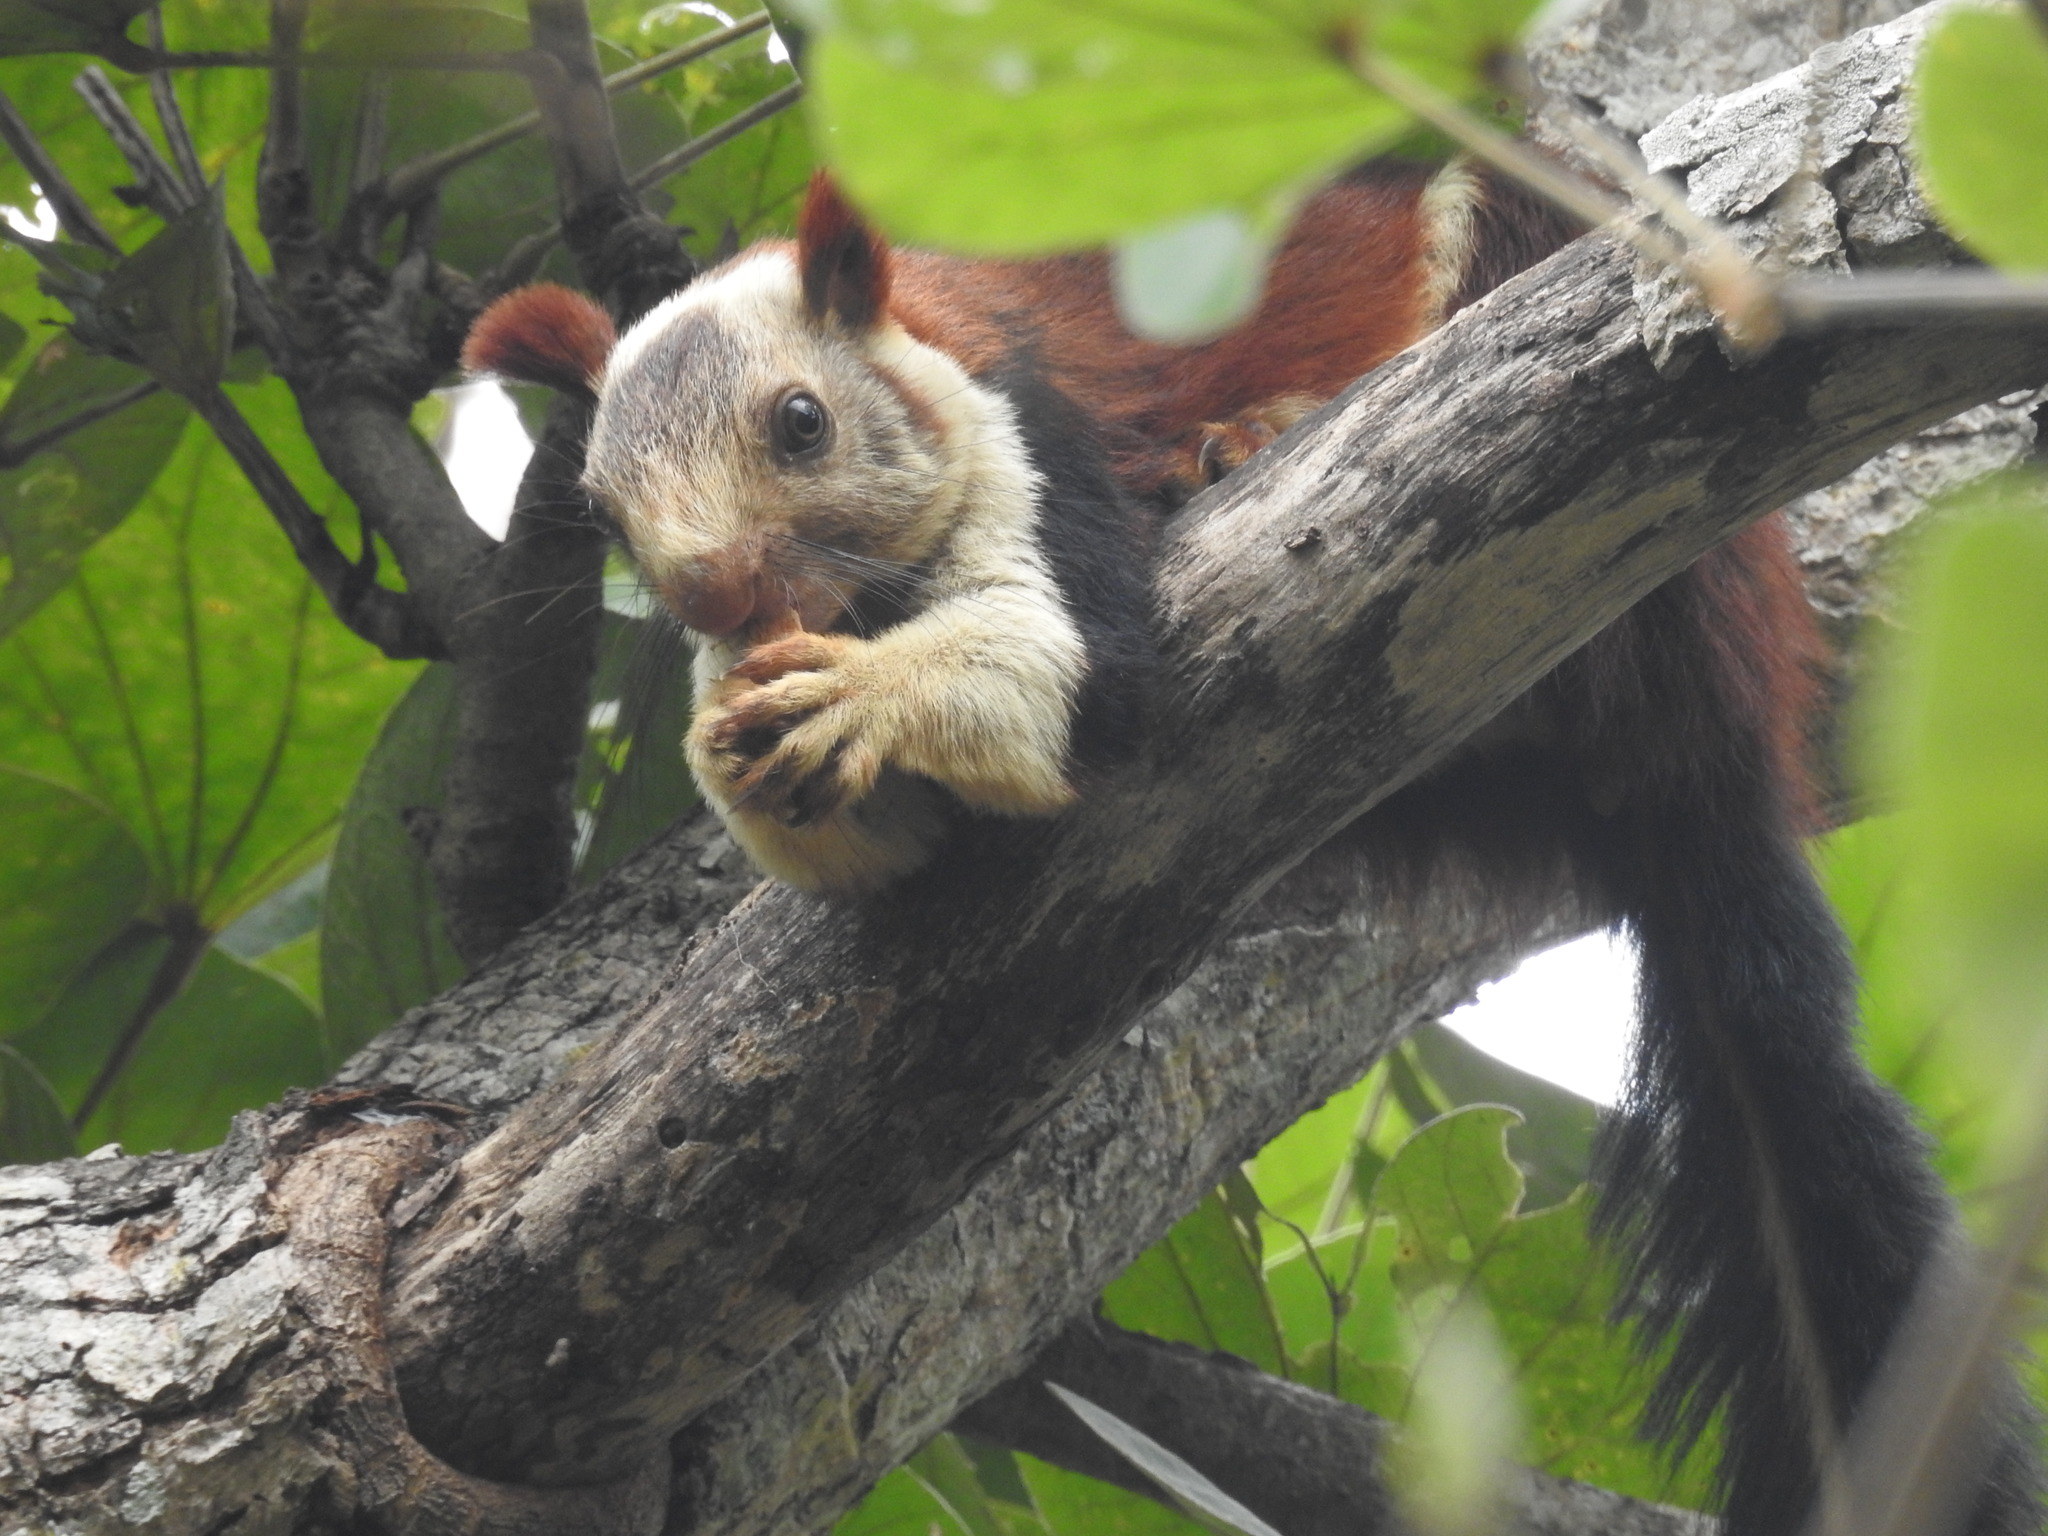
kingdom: Animalia
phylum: Chordata
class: Mammalia
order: Rodentia
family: Sciuridae
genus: Ratufa
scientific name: Ratufa indica
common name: Indian giant squirrel
